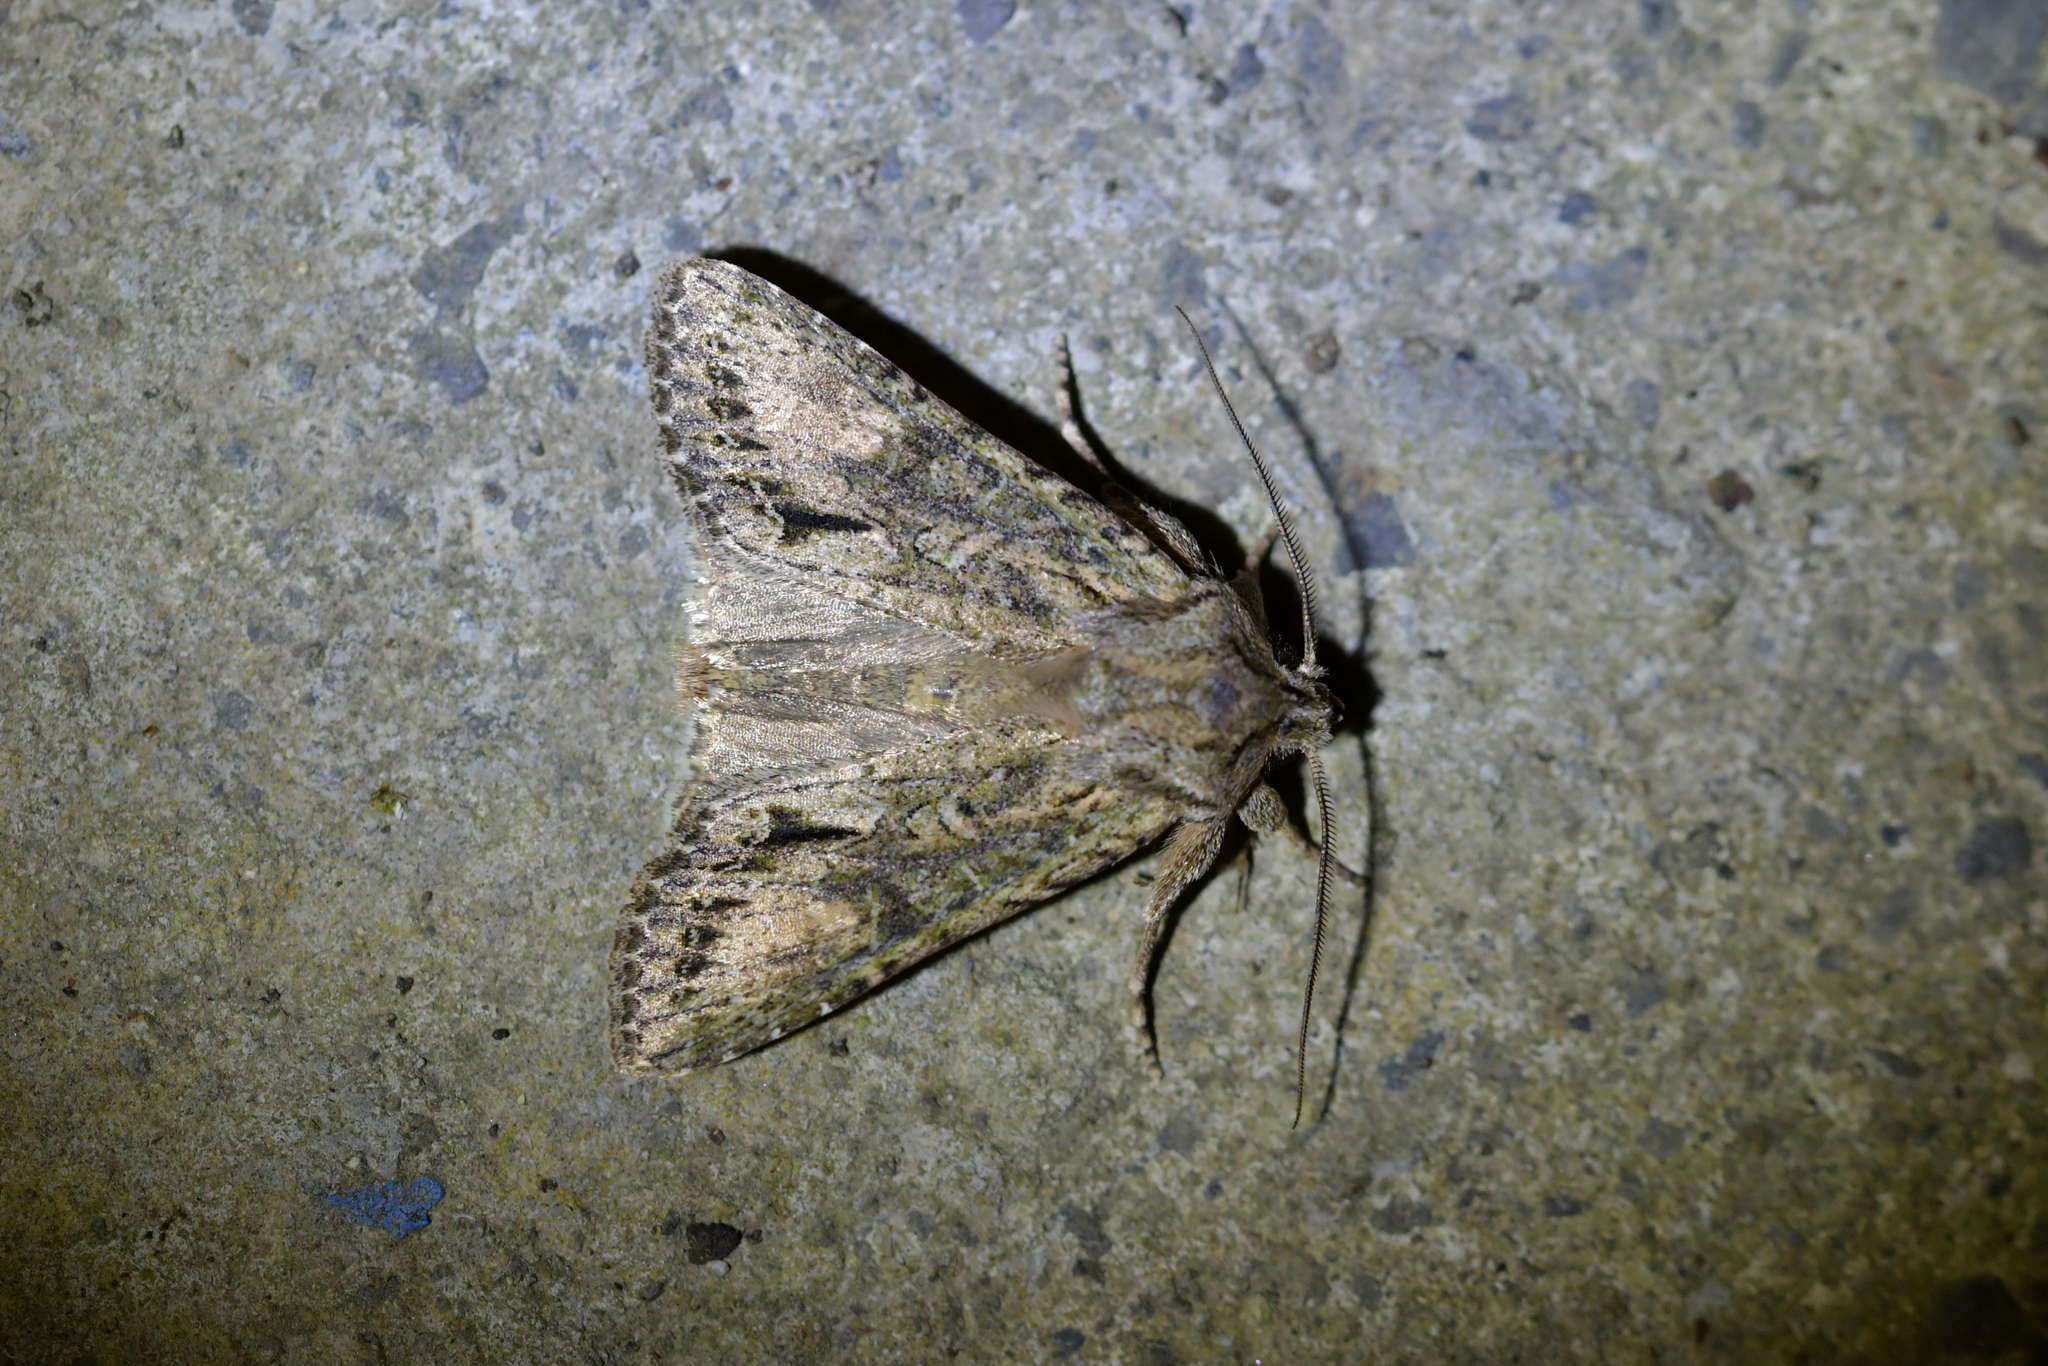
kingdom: Animalia
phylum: Arthropoda
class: Insecta
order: Lepidoptera
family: Noctuidae
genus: Ichneutica
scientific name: Ichneutica mutans
